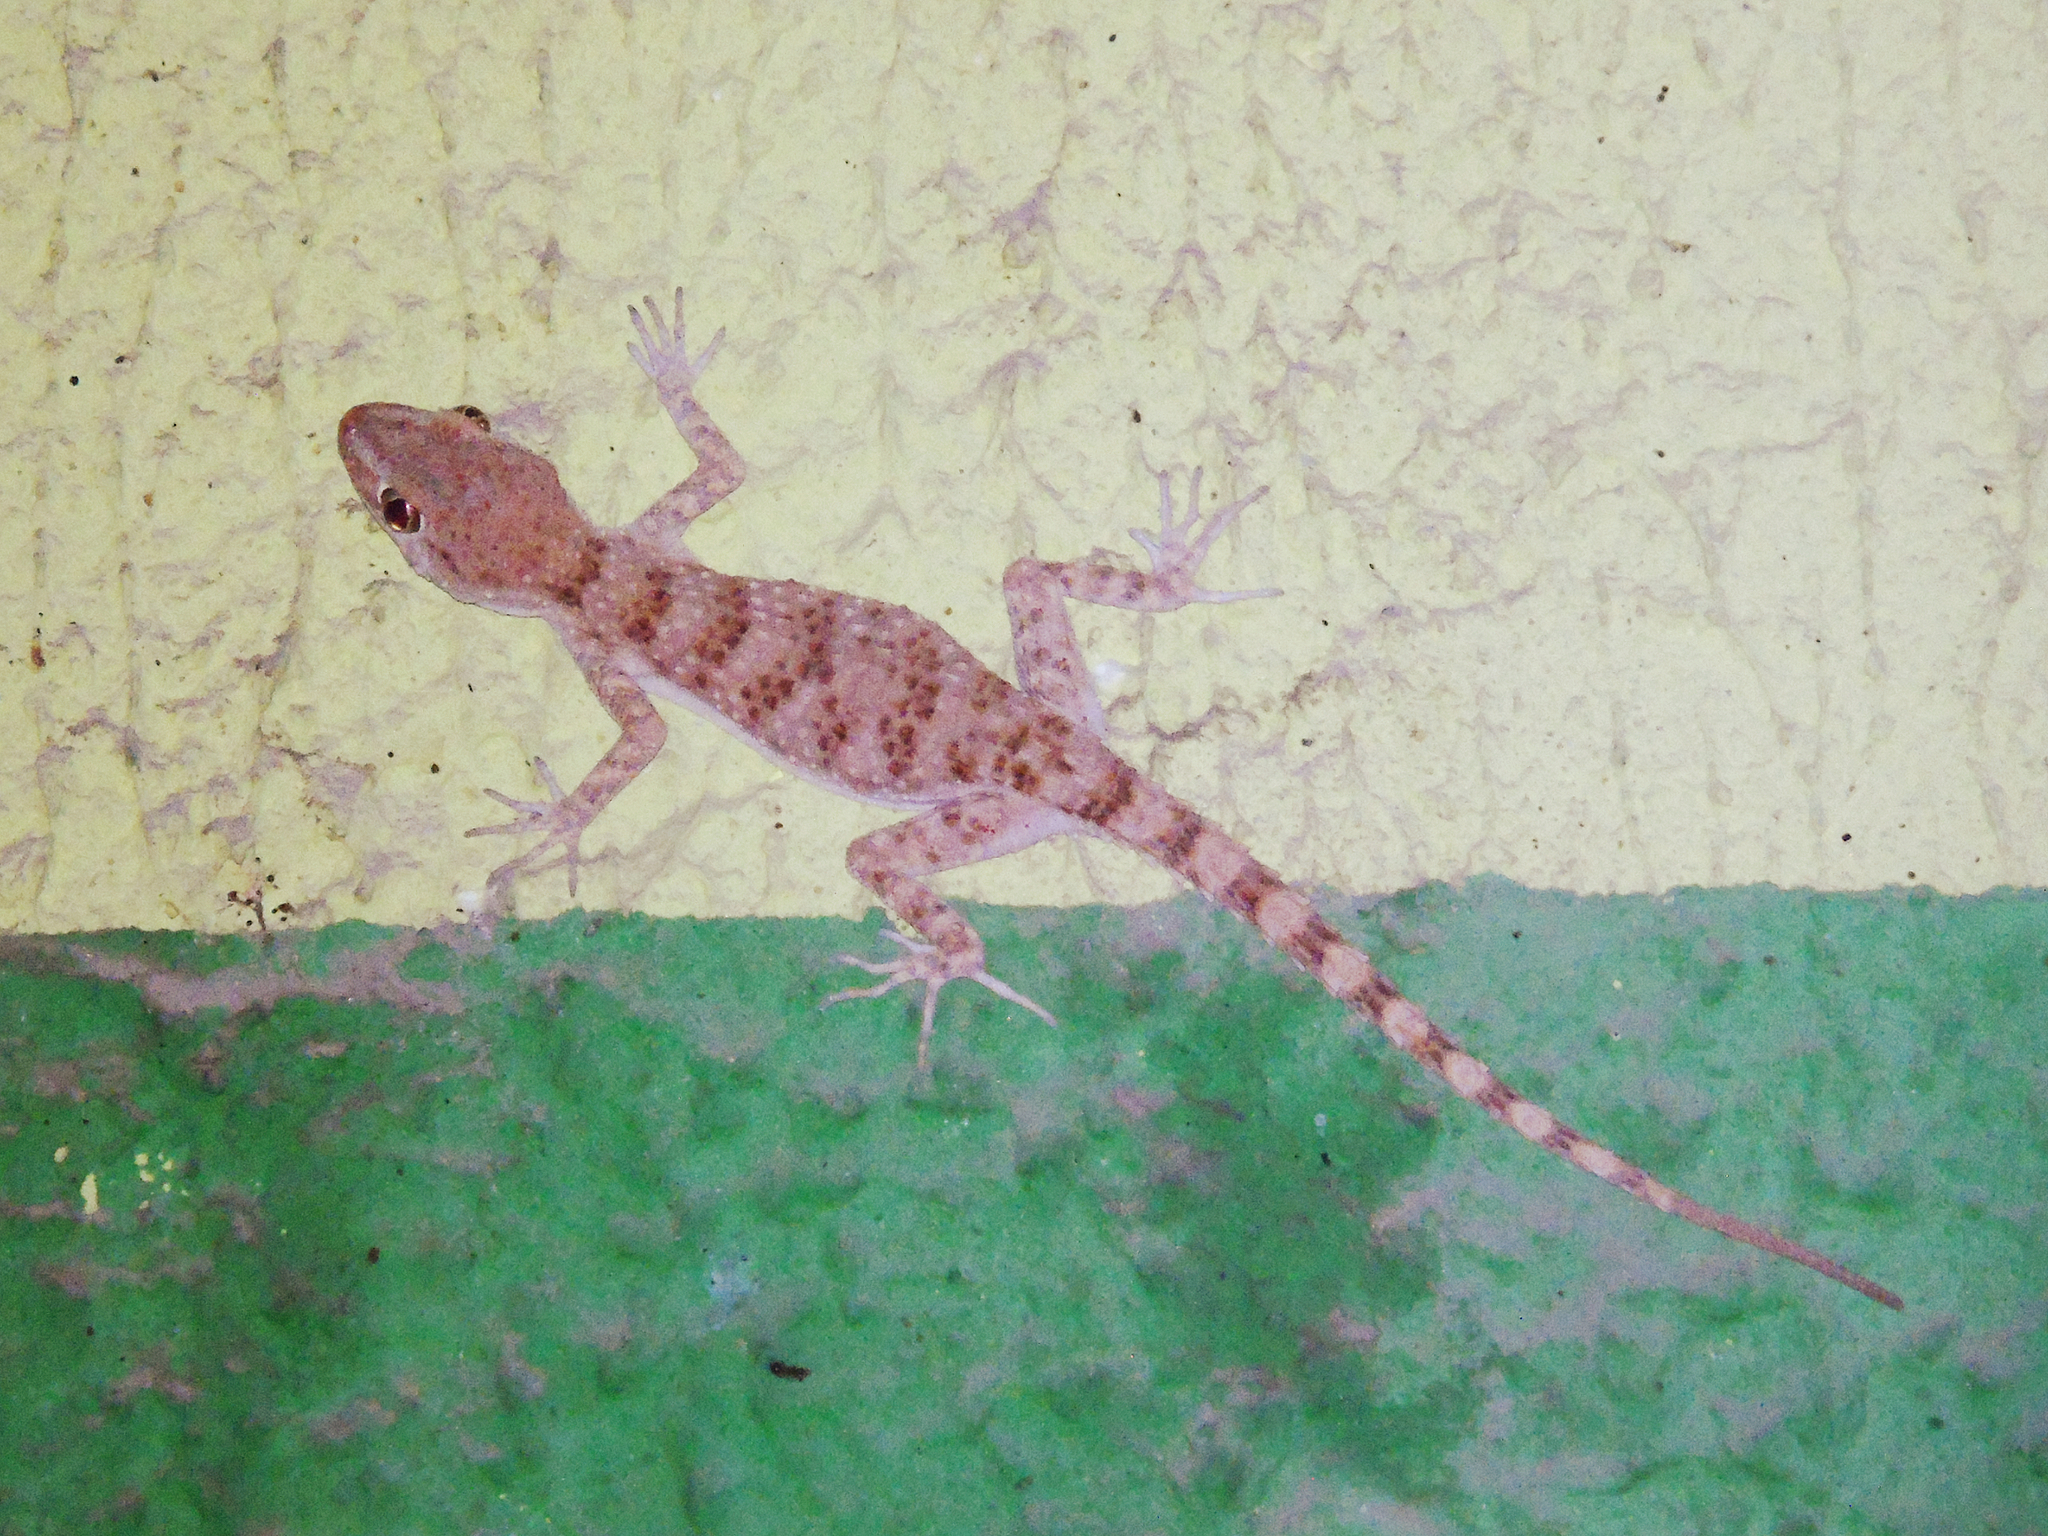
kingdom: Animalia
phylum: Chordata
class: Squamata
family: Gekkonidae
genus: Tenuidactylus
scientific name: Tenuidactylus fedtschenkoi
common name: Turkestan thin-toed gecko
